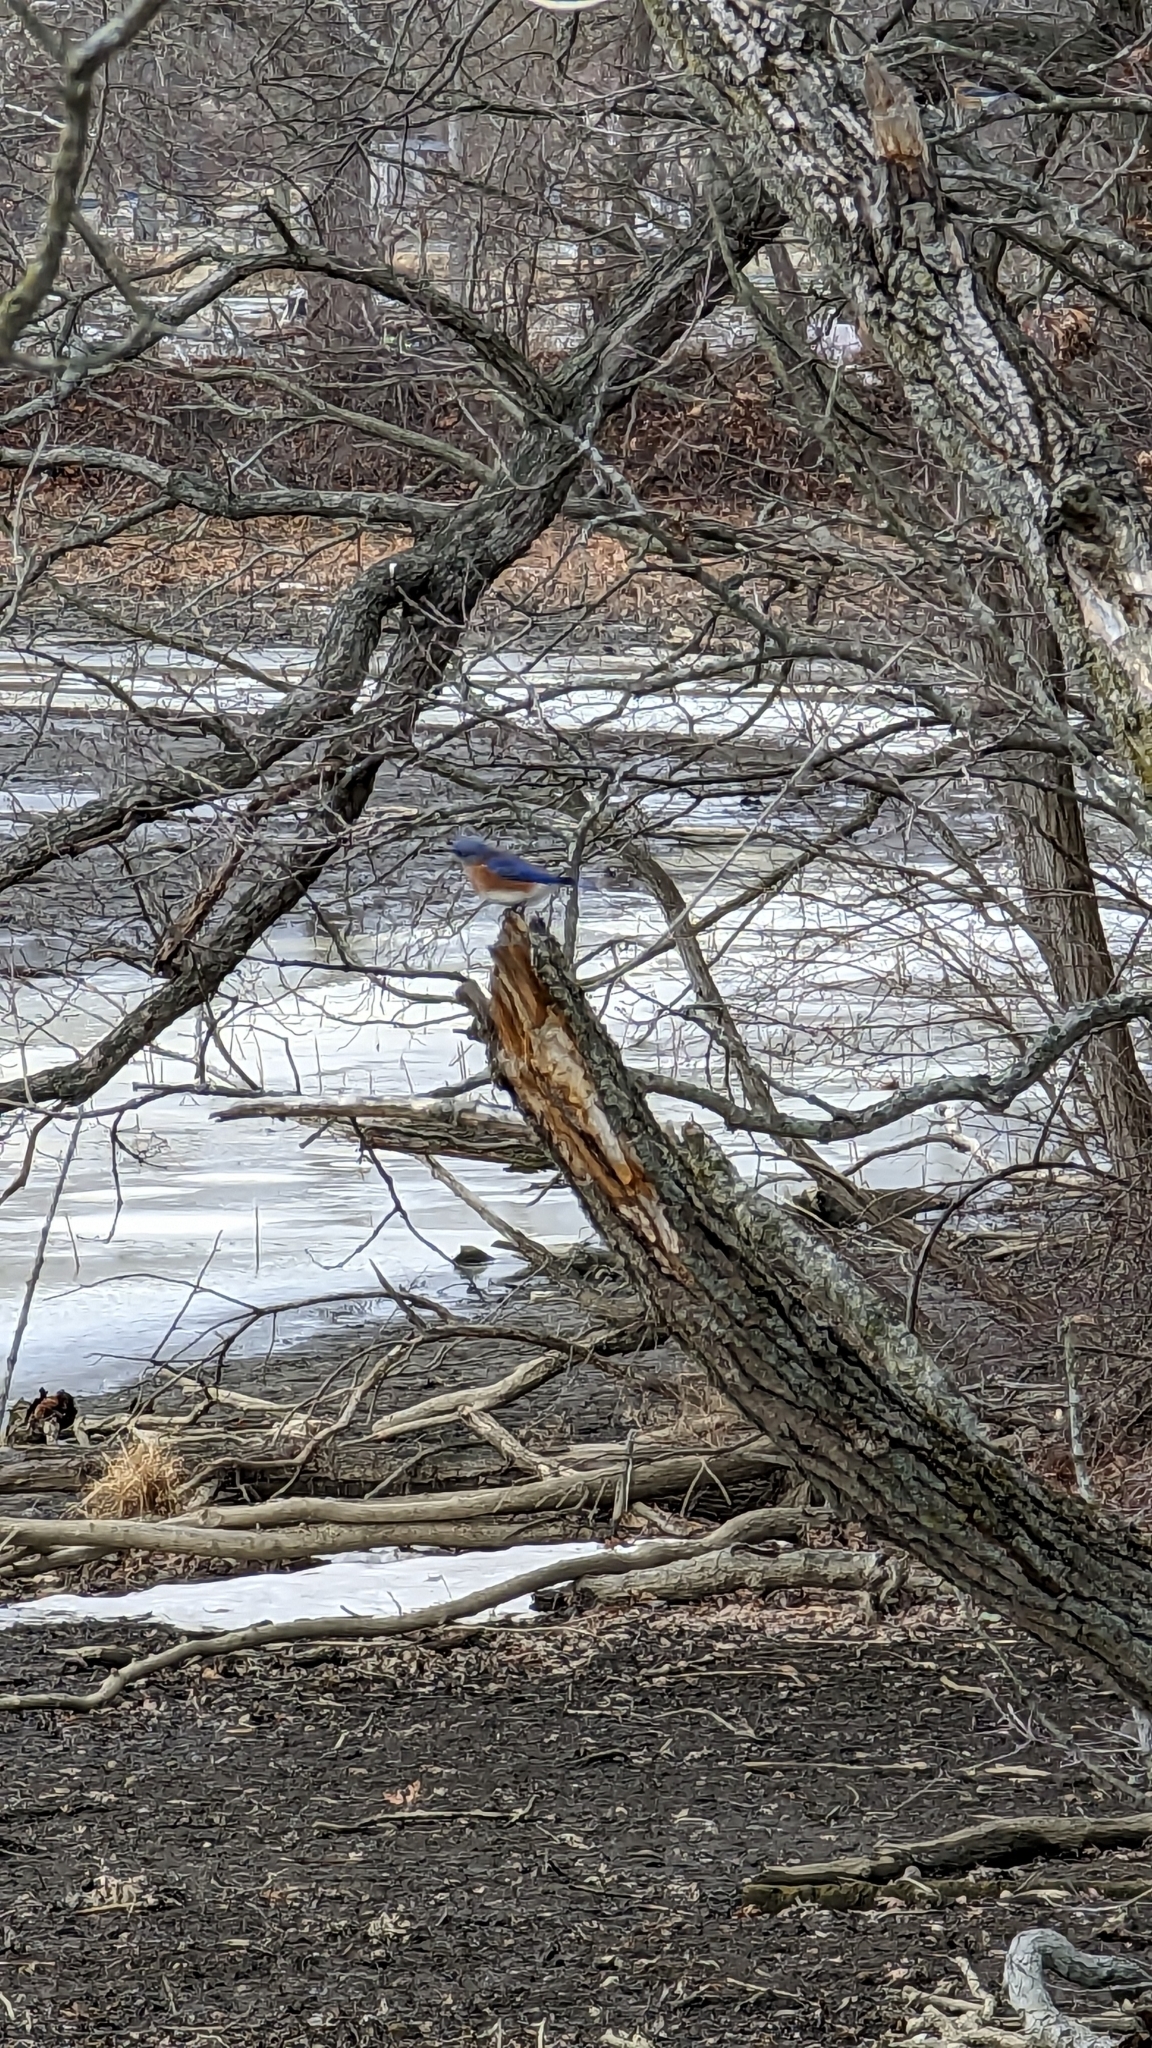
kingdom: Animalia
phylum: Chordata
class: Aves
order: Passeriformes
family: Turdidae
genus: Sialia
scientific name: Sialia sialis
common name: Eastern bluebird
